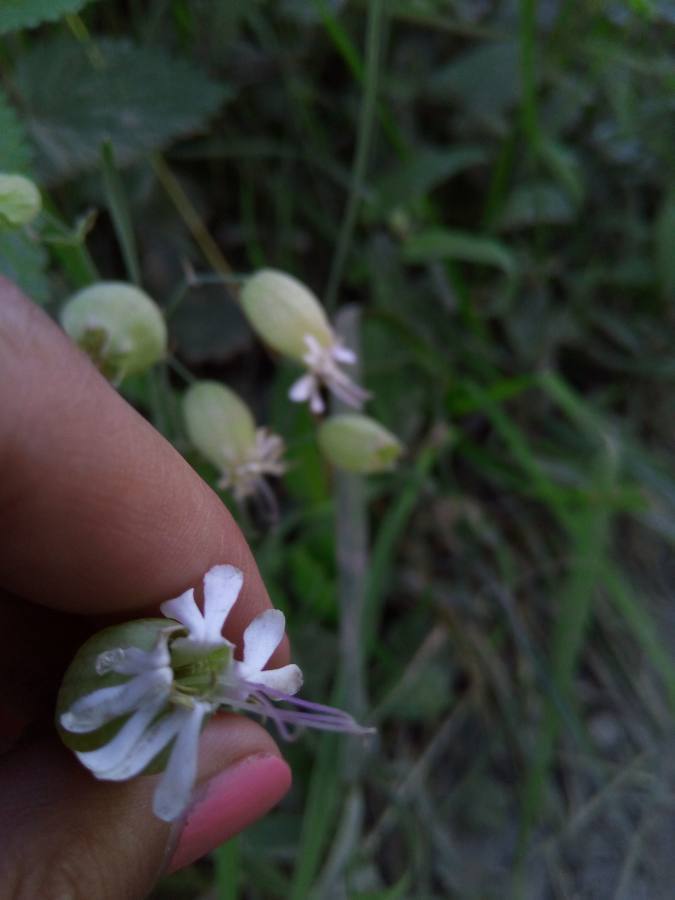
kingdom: Plantae
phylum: Tracheophyta
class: Magnoliopsida
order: Caryophyllales
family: Caryophyllaceae
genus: Silene
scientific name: Silene vulgaris
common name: Bladder campion
